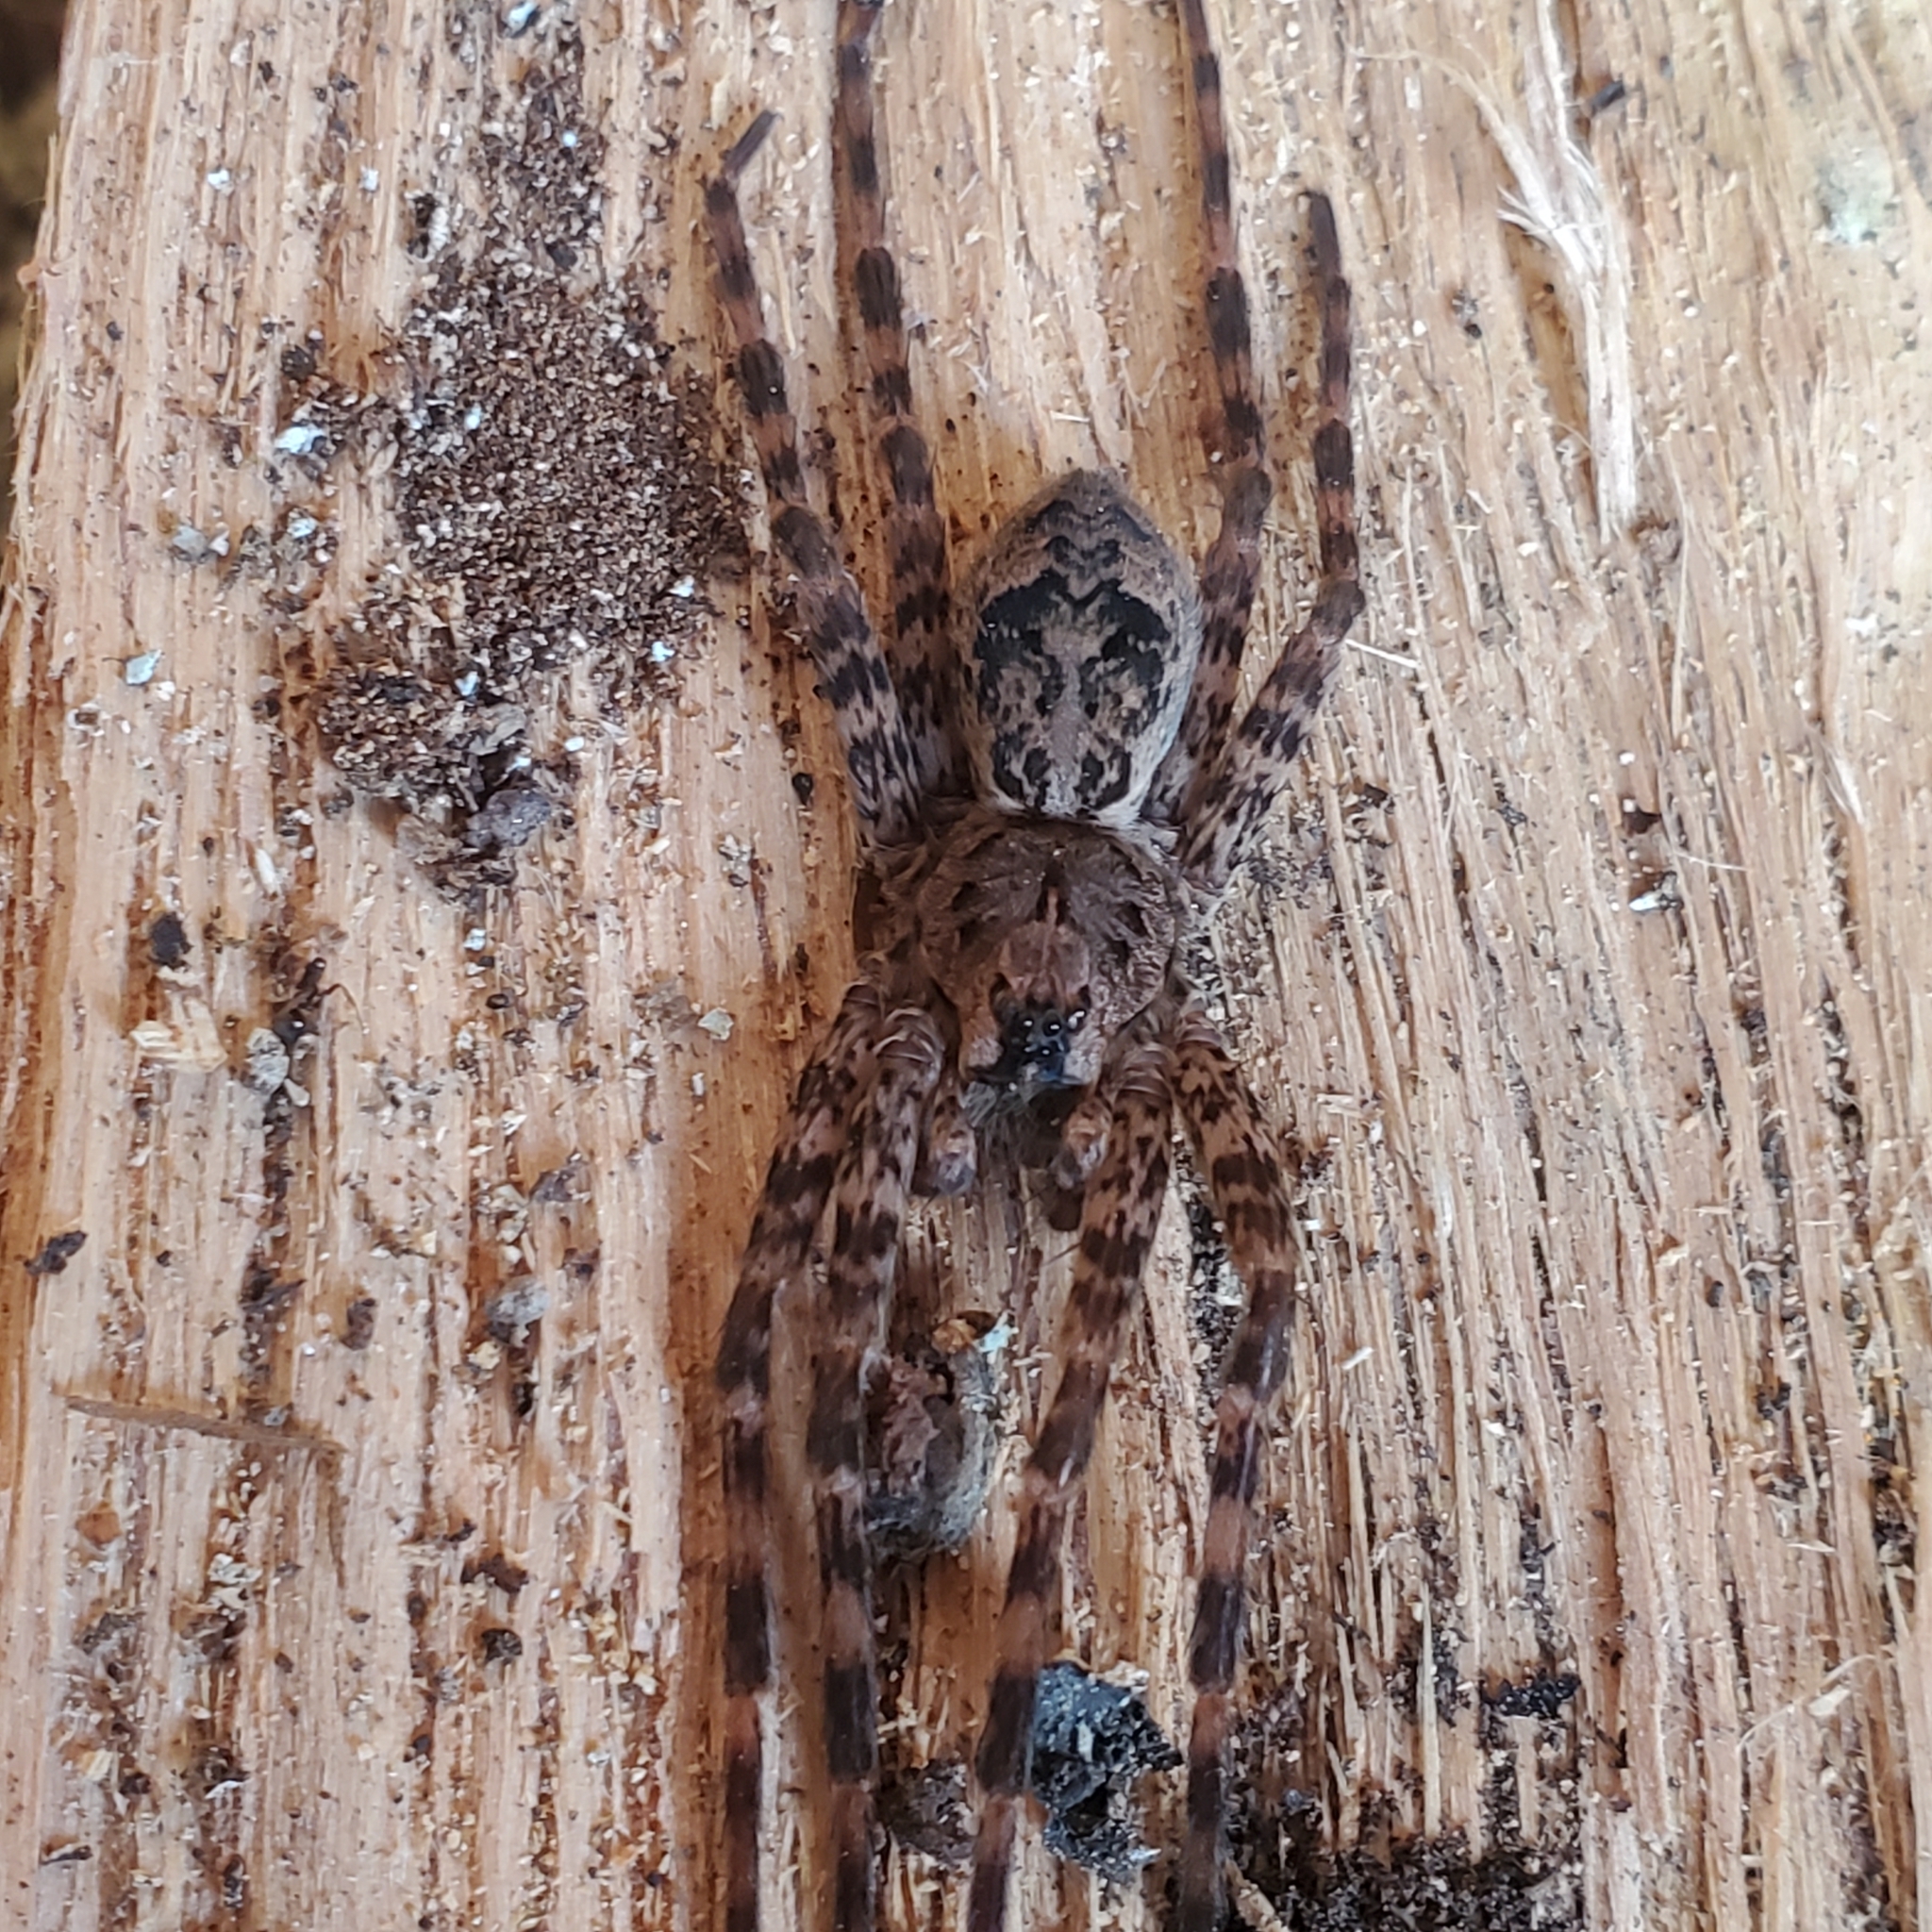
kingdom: Animalia
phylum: Arthropoda
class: Arachnida
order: Araneae
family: Pisauridae
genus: Dolomedes
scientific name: Dolomedes tenebrosus
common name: Dark fishing spider
